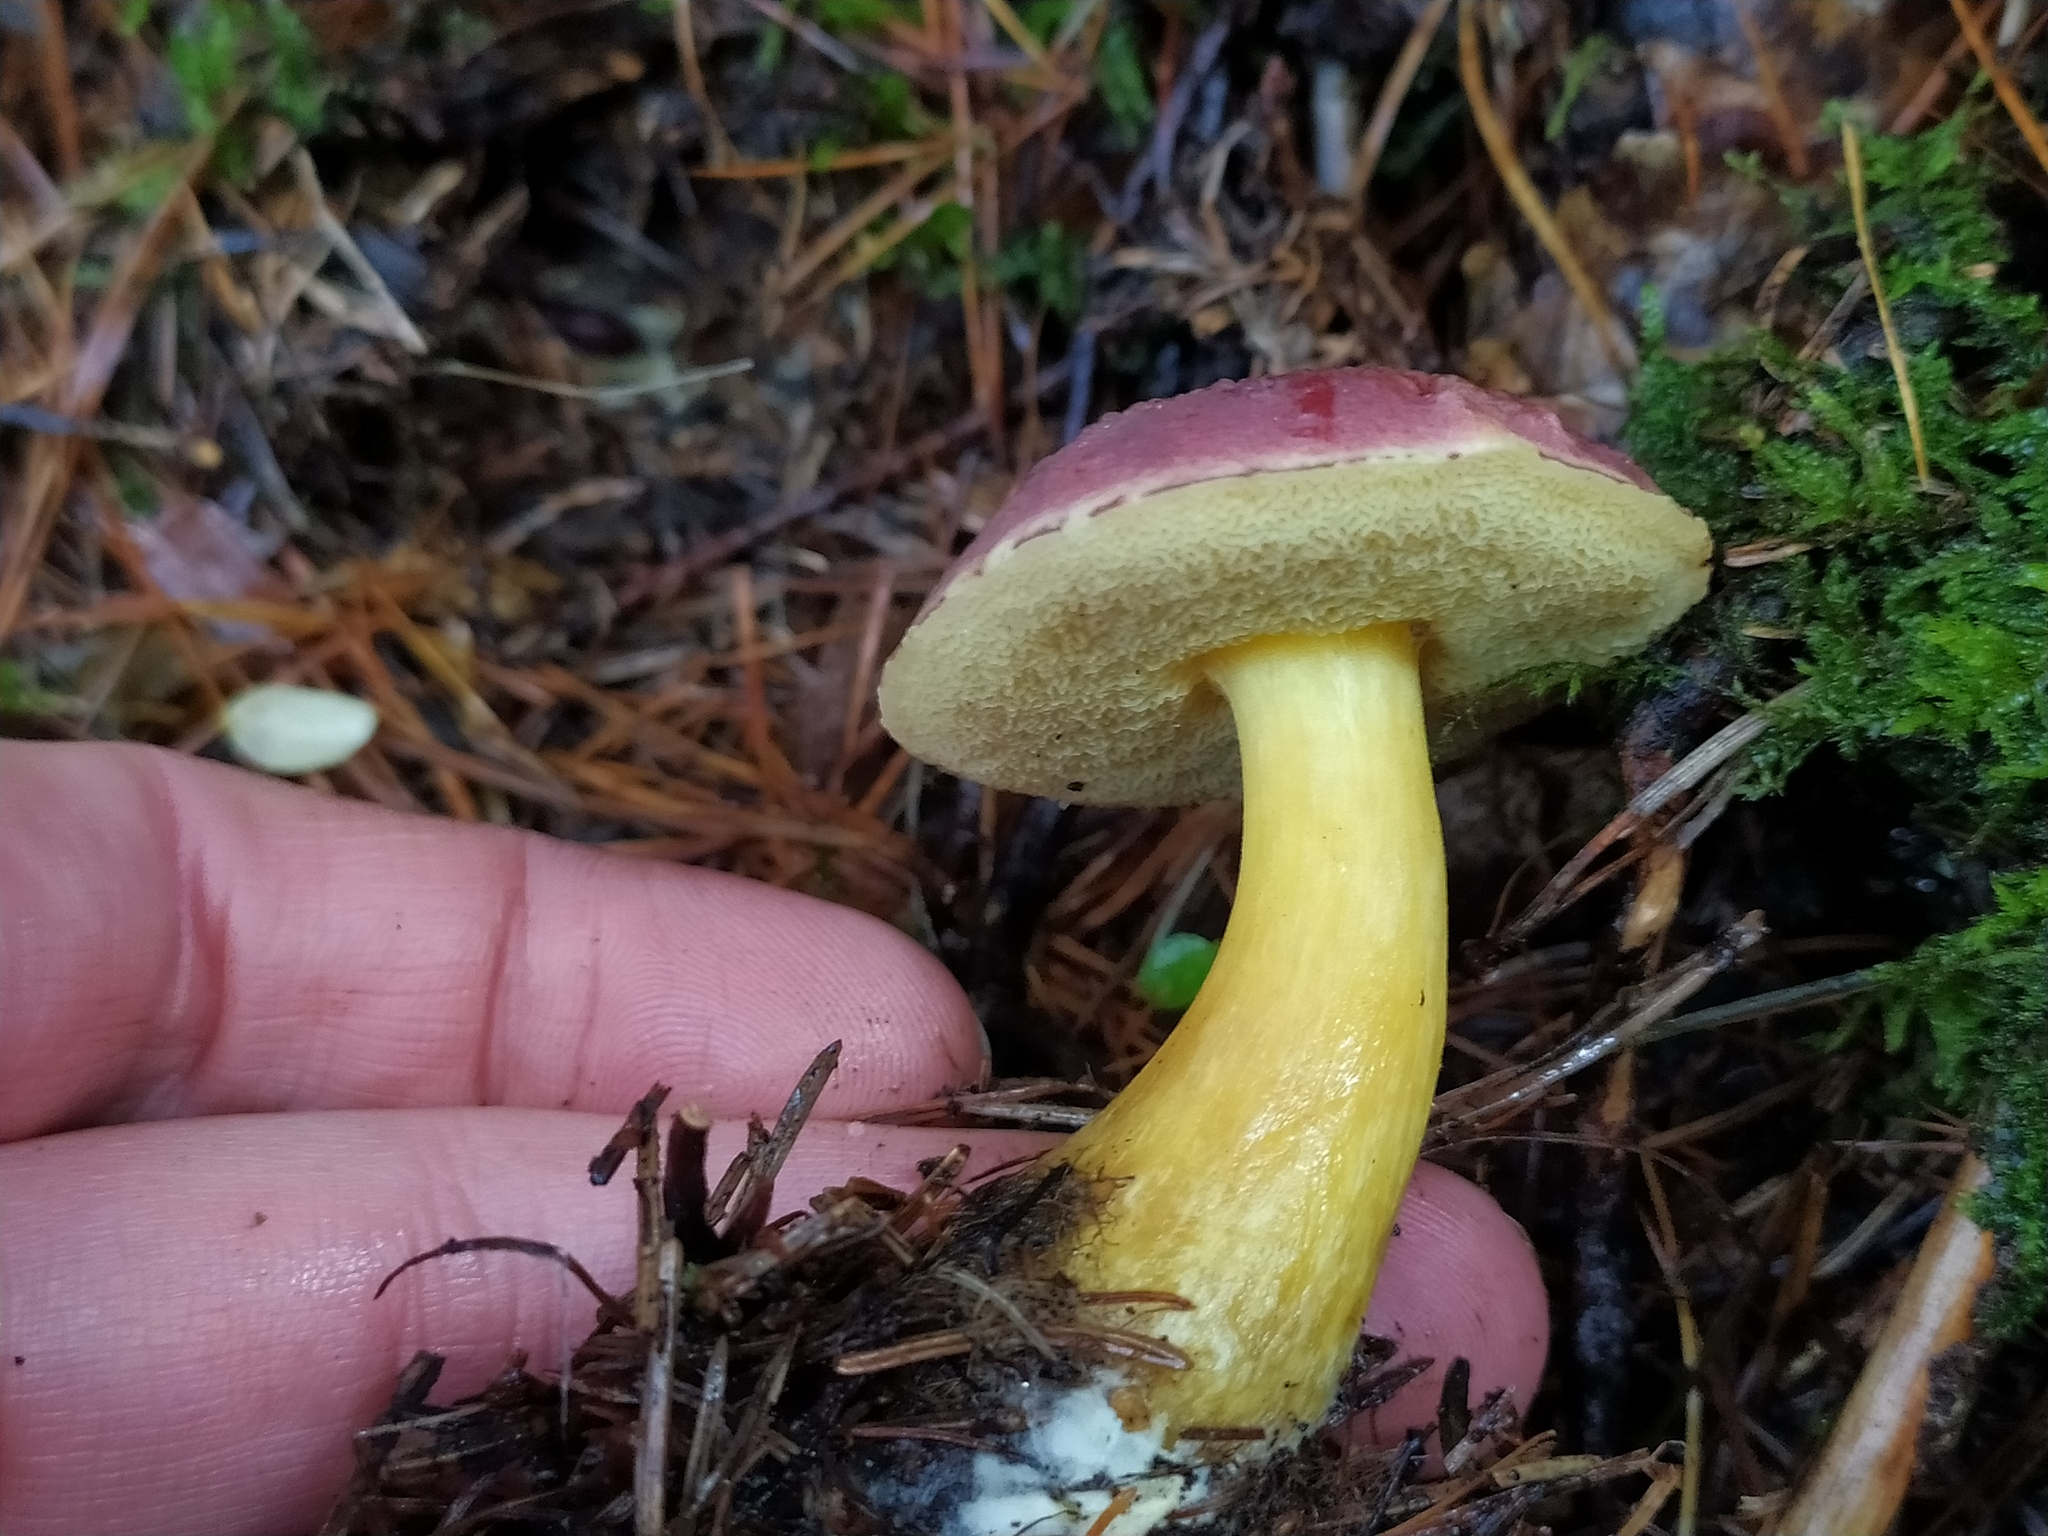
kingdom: Fungi
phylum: Basidiomycota
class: Agaricomycetes
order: Boletales
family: Boletaceae
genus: Hortiboletus
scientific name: Hortiboletus rubellus
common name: Ruby bolete
